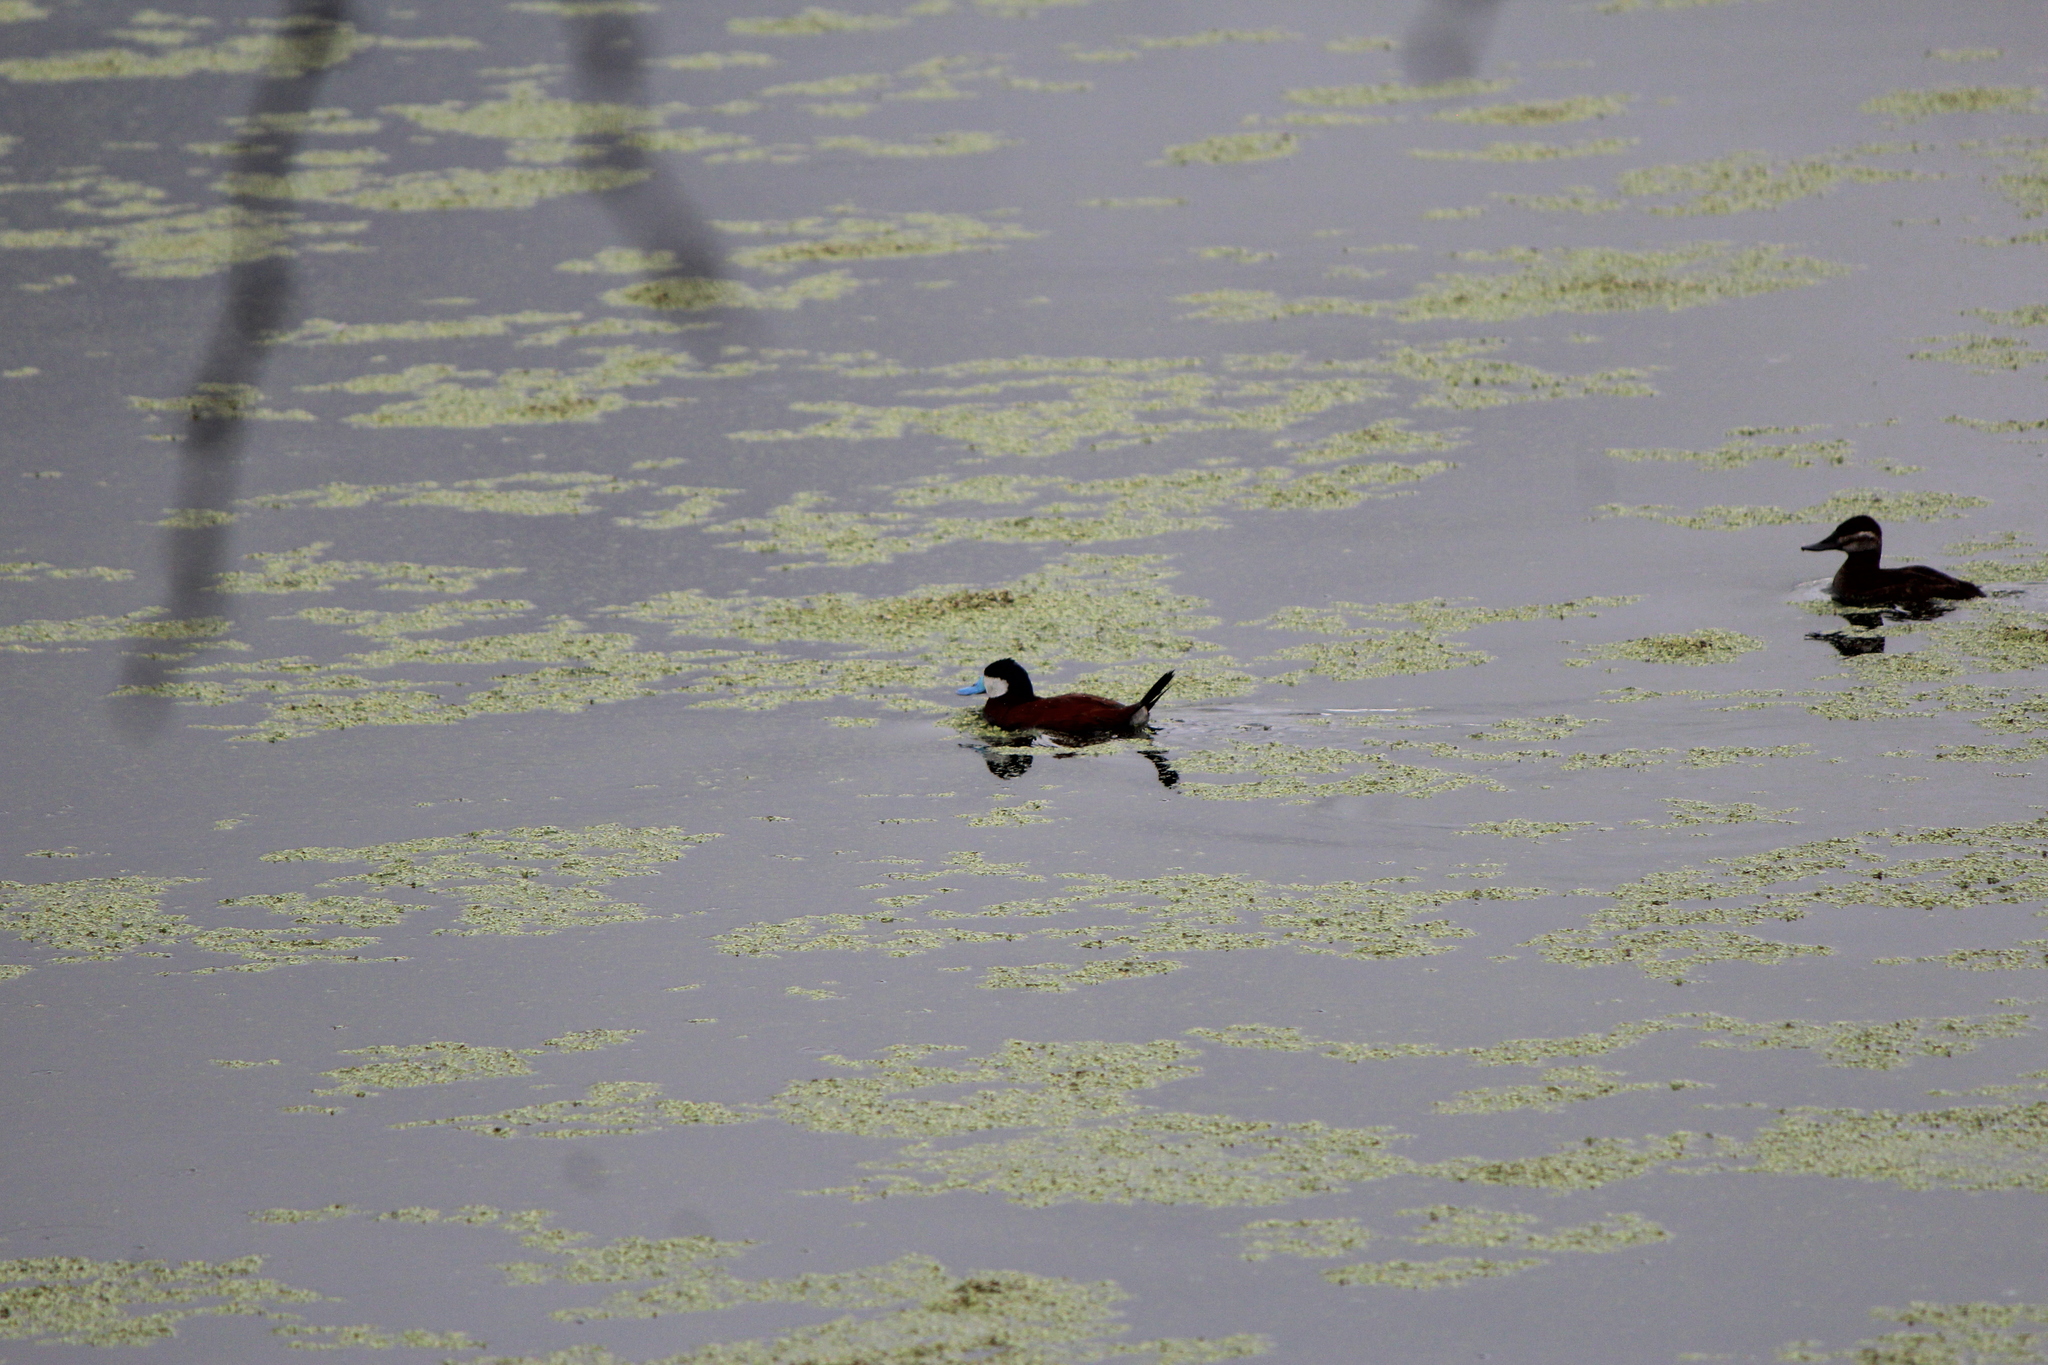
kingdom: Animalia
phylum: Chordata
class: Aves
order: Anseriformes
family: Anatidae
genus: Oxyura
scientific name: Oxyura jamaicensis
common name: Ruddy duck
